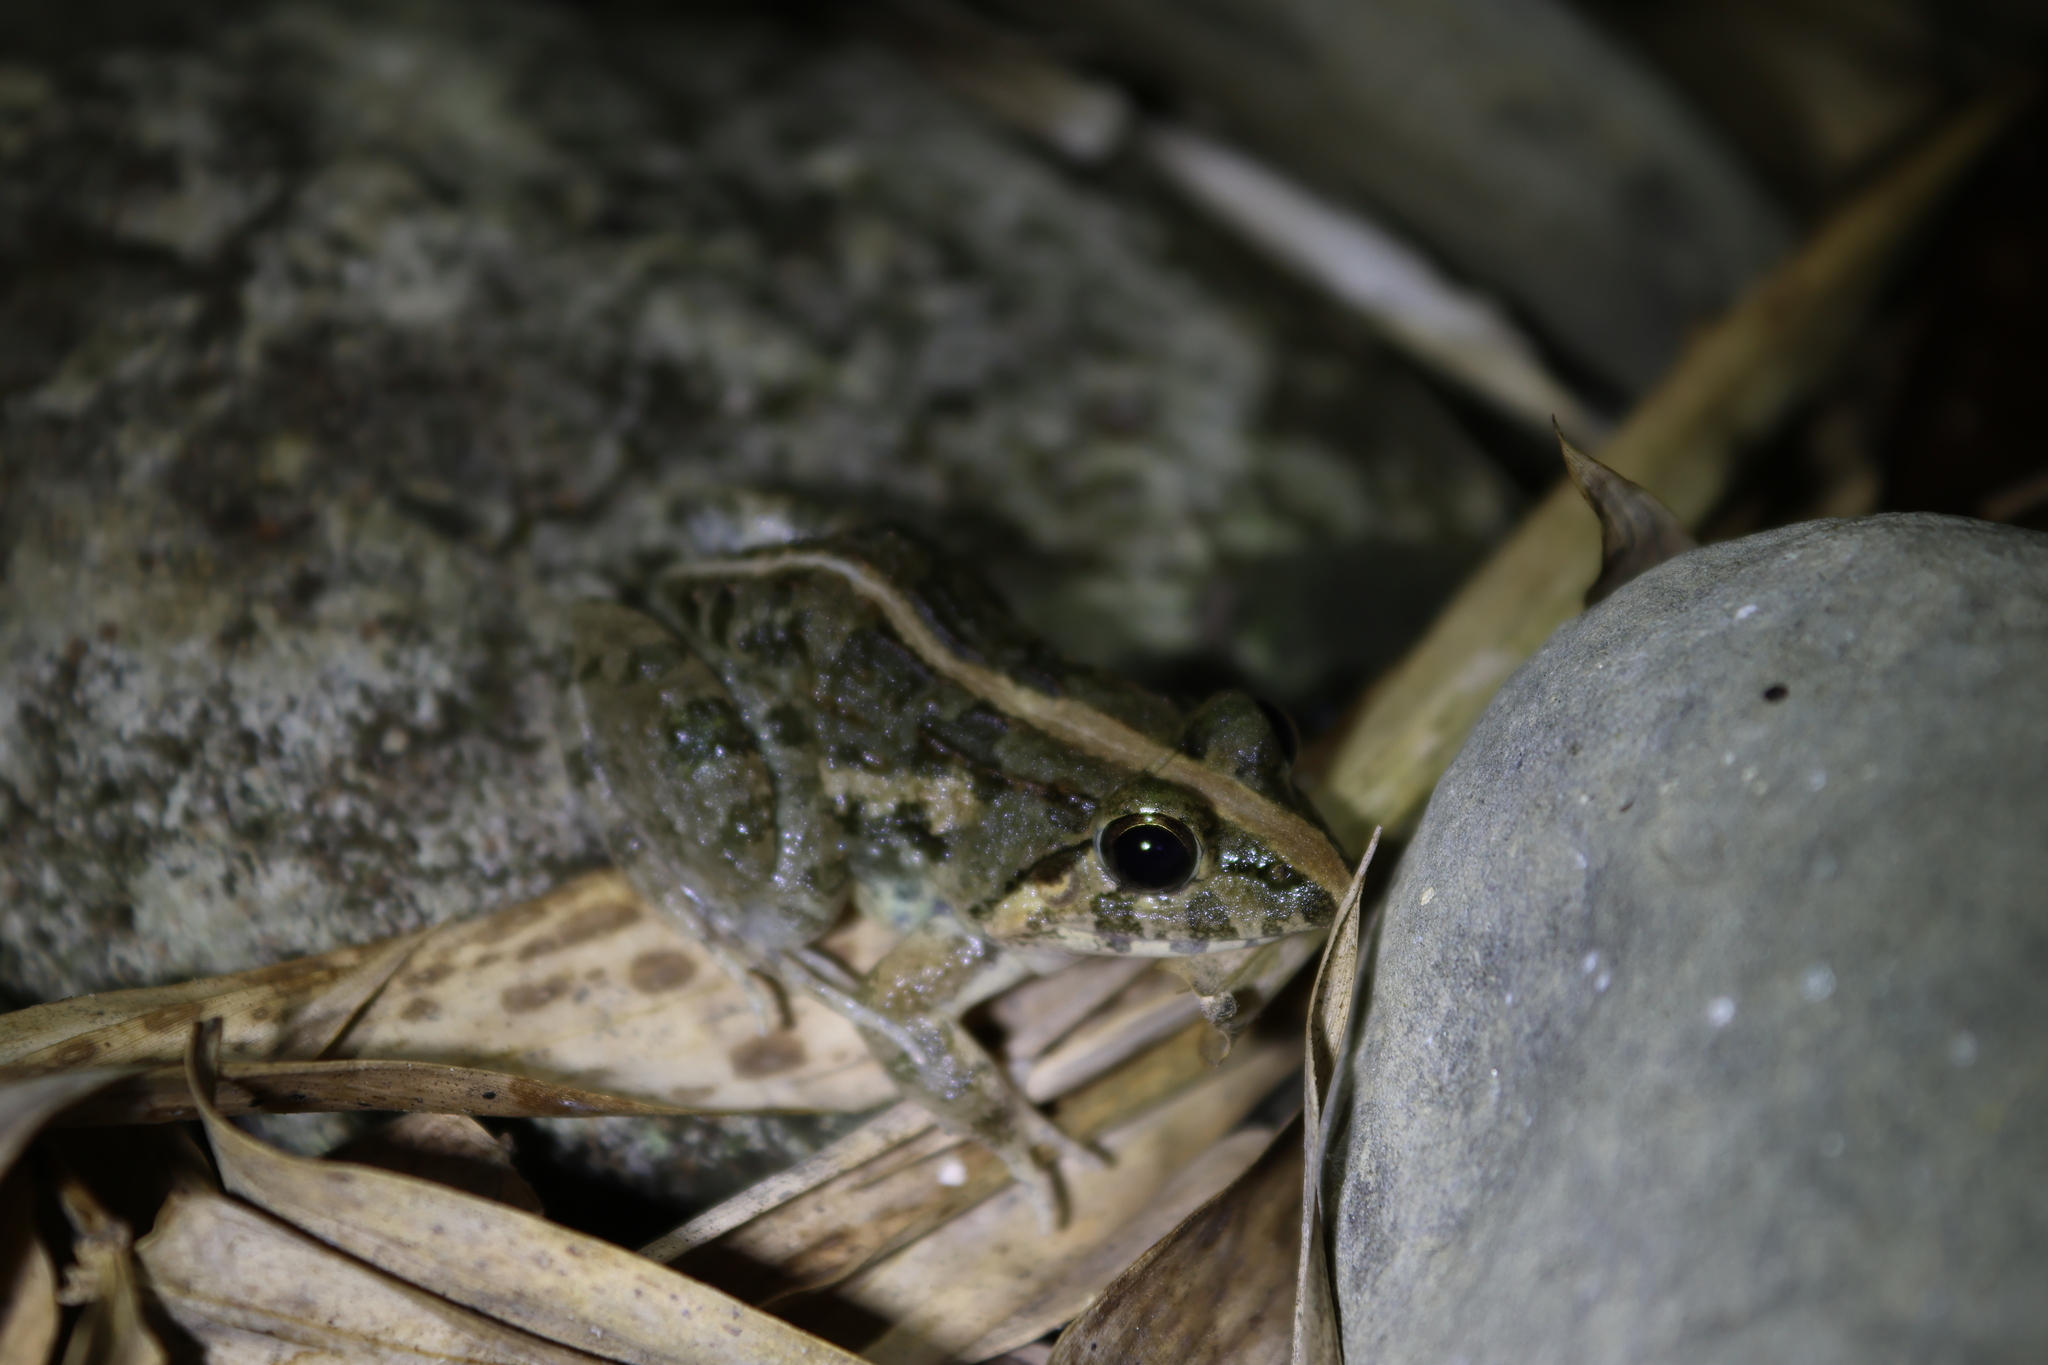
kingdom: Animalia
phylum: Chordata
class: Amphibia
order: Anura
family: Dicroglossidae
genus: Fejervarya
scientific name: Fejervarya limnocharis
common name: Asian grass frog/common pond frog/field frog/grass frog/indian rice frog
